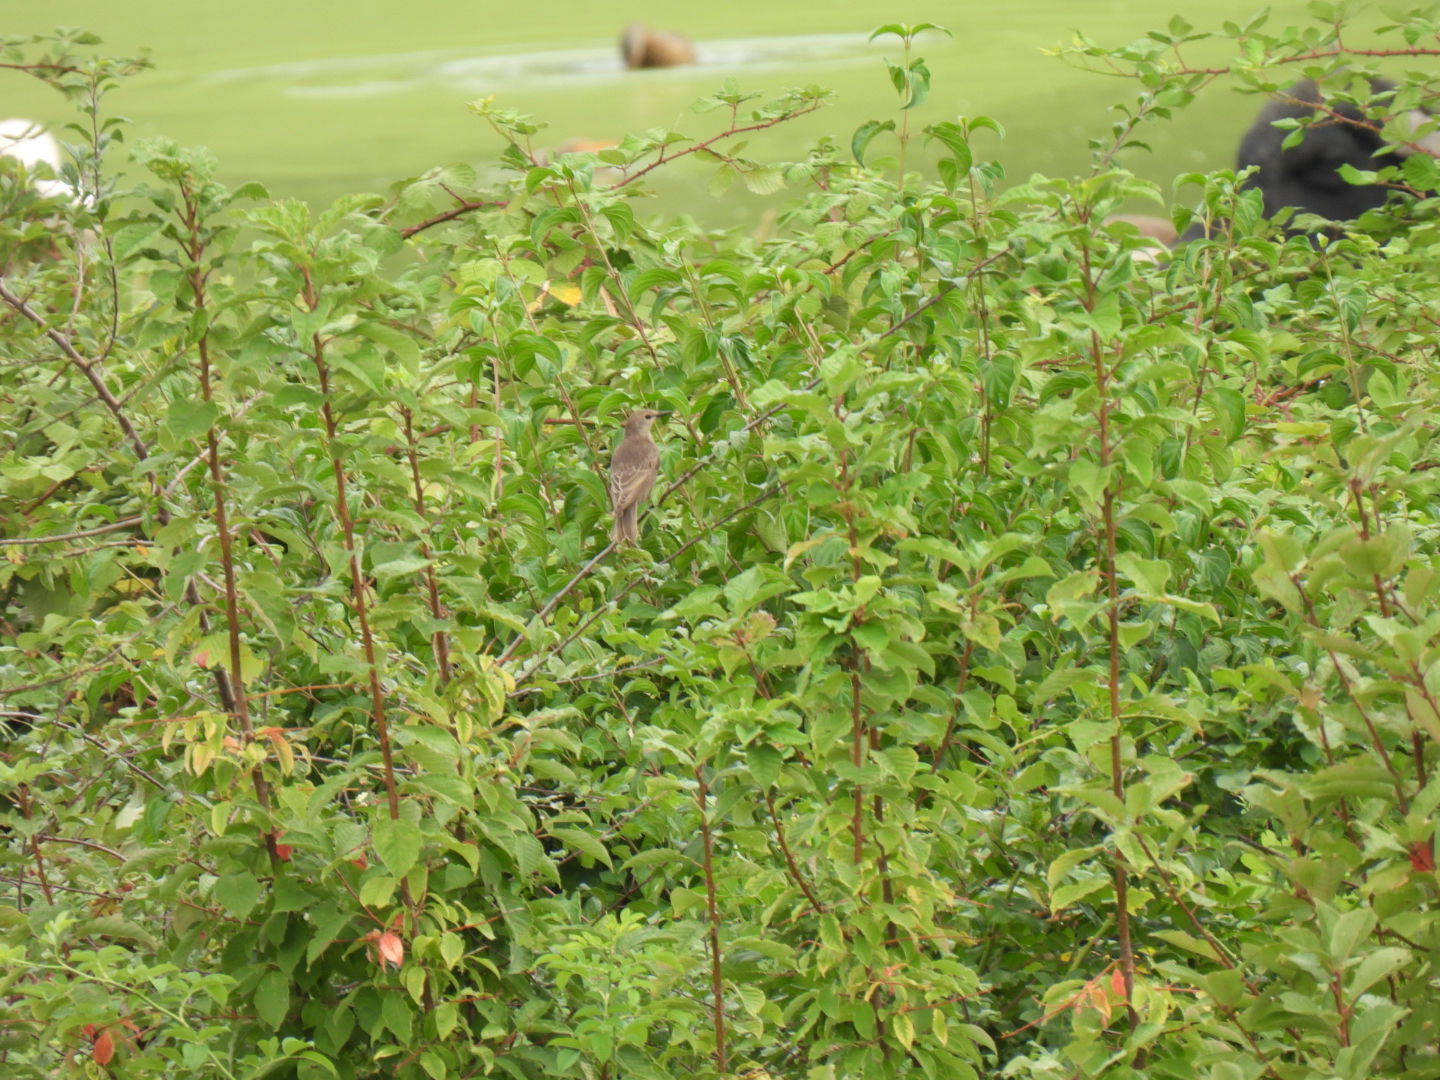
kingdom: Animalia
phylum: Chordata
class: Aves
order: Passeriformes
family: Sturnidae
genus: Sturnus
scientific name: Sturnus vulgaris
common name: Common starling
